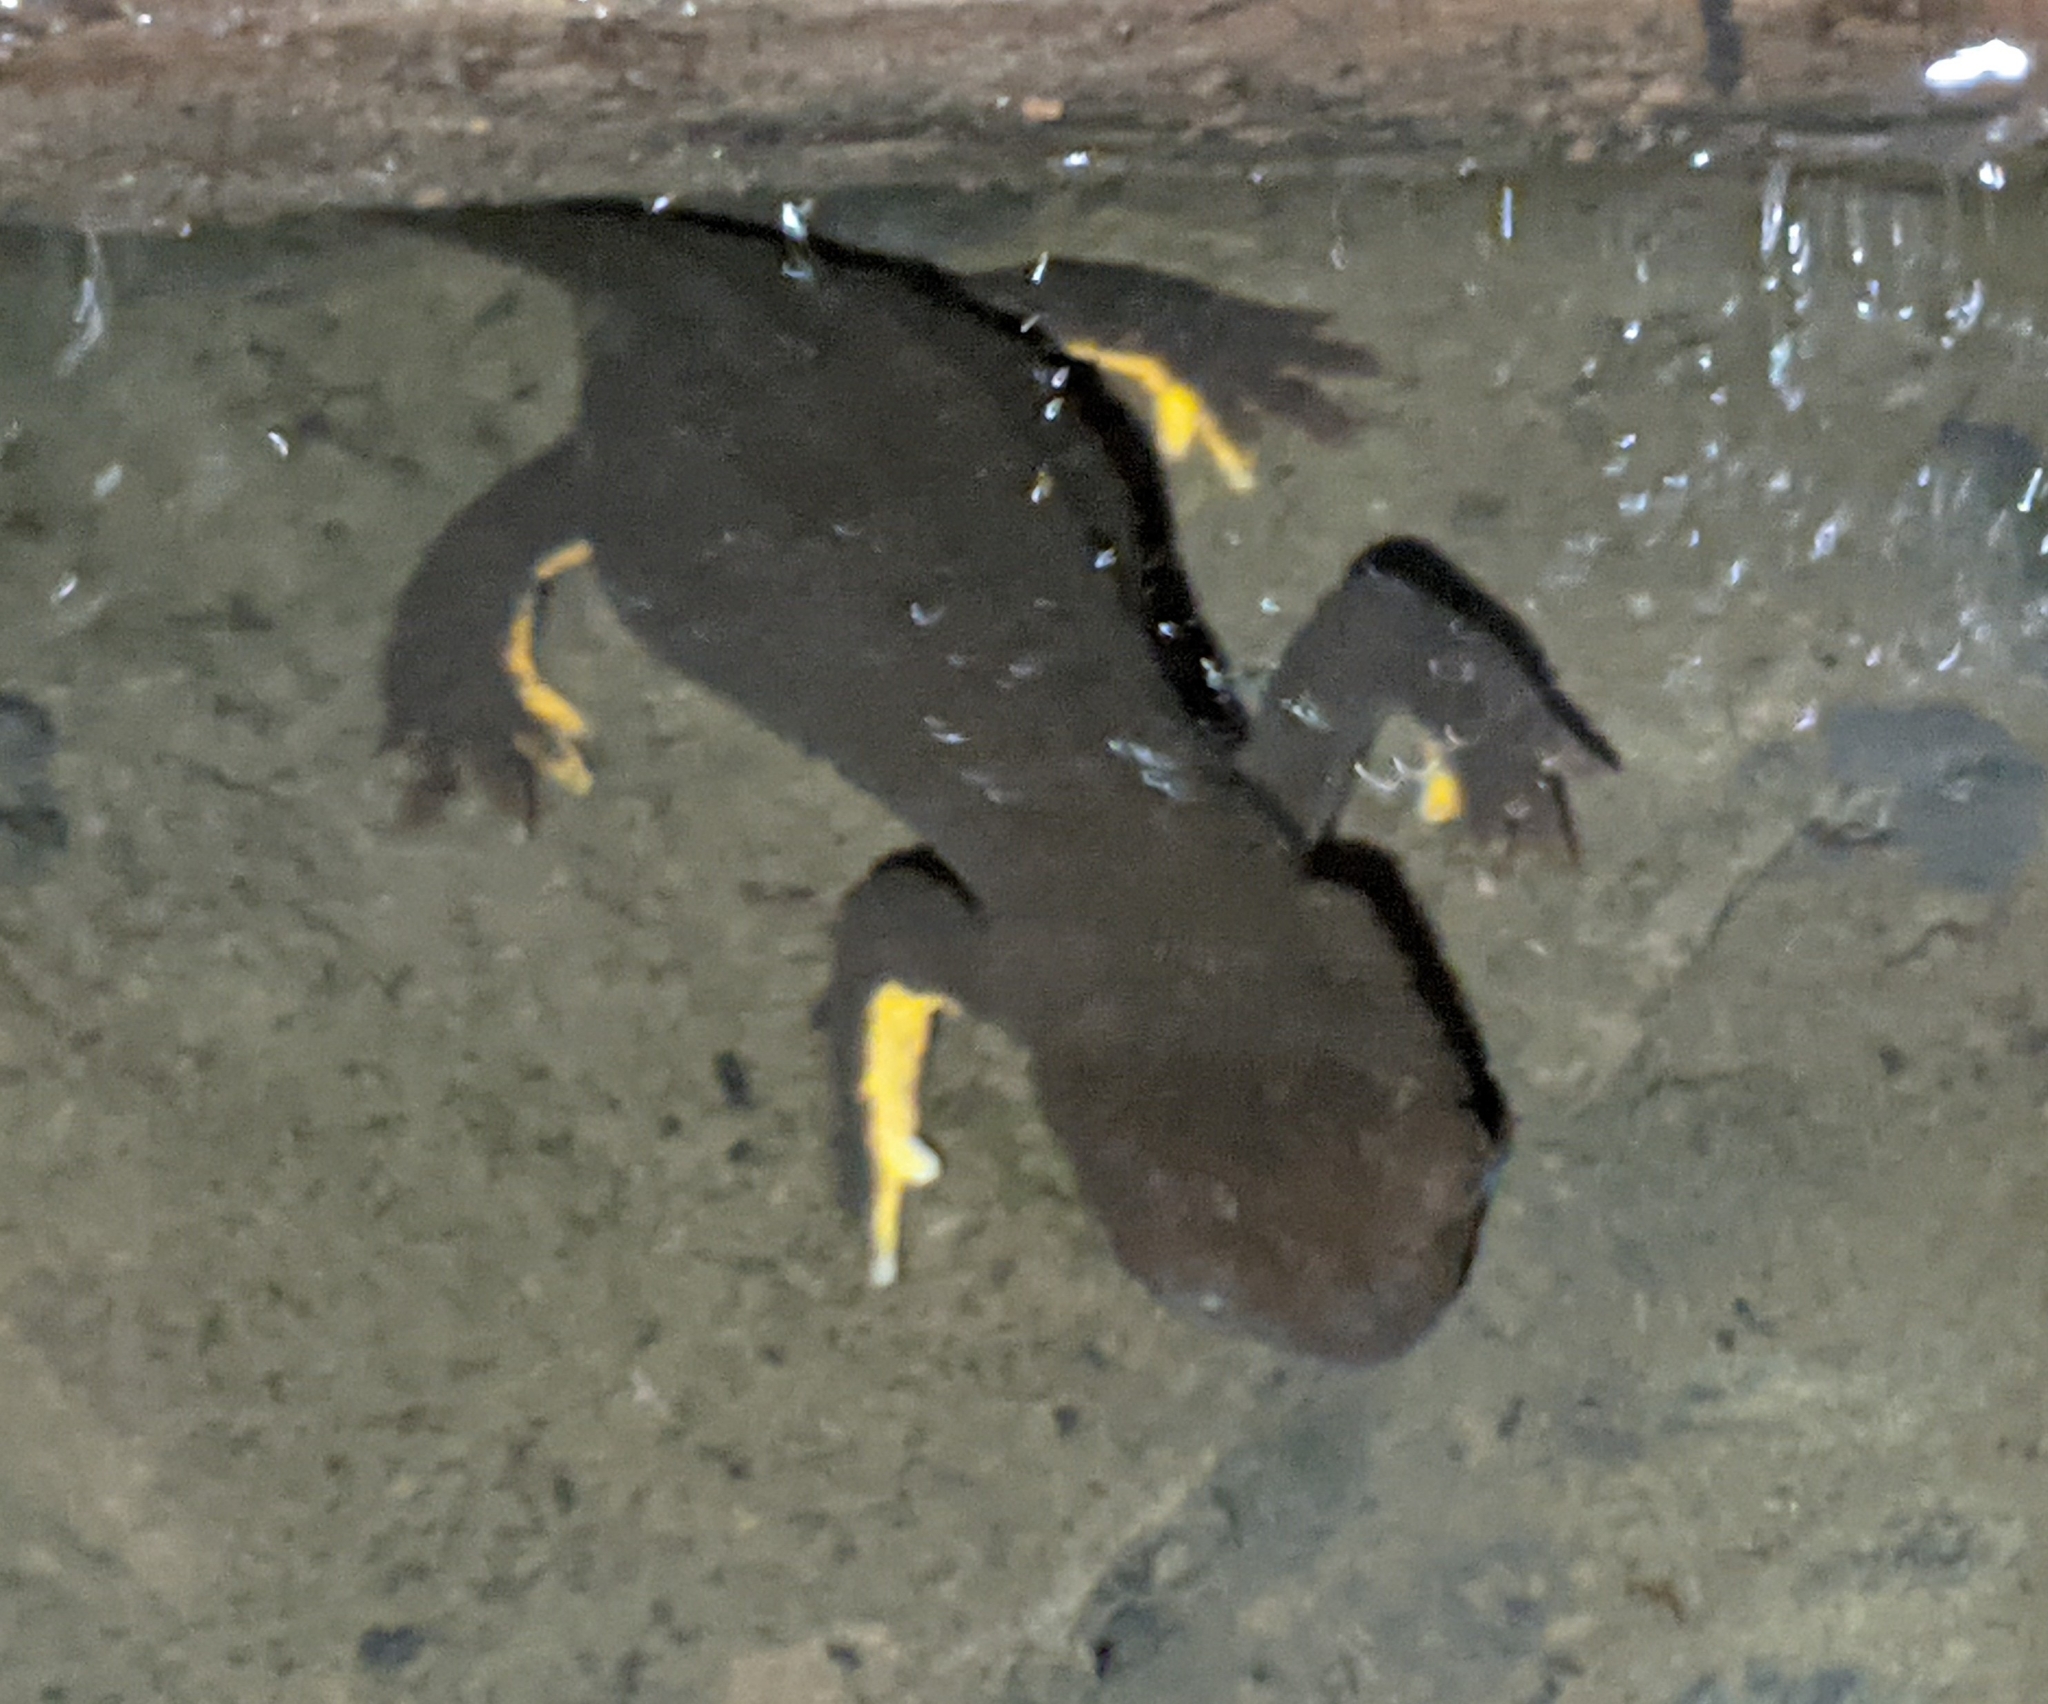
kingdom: Animalia
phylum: Chordata
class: Amphibia
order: Caudata
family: Salamandridae
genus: Taricha
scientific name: Taricha granulosa
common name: Roughskin newt
